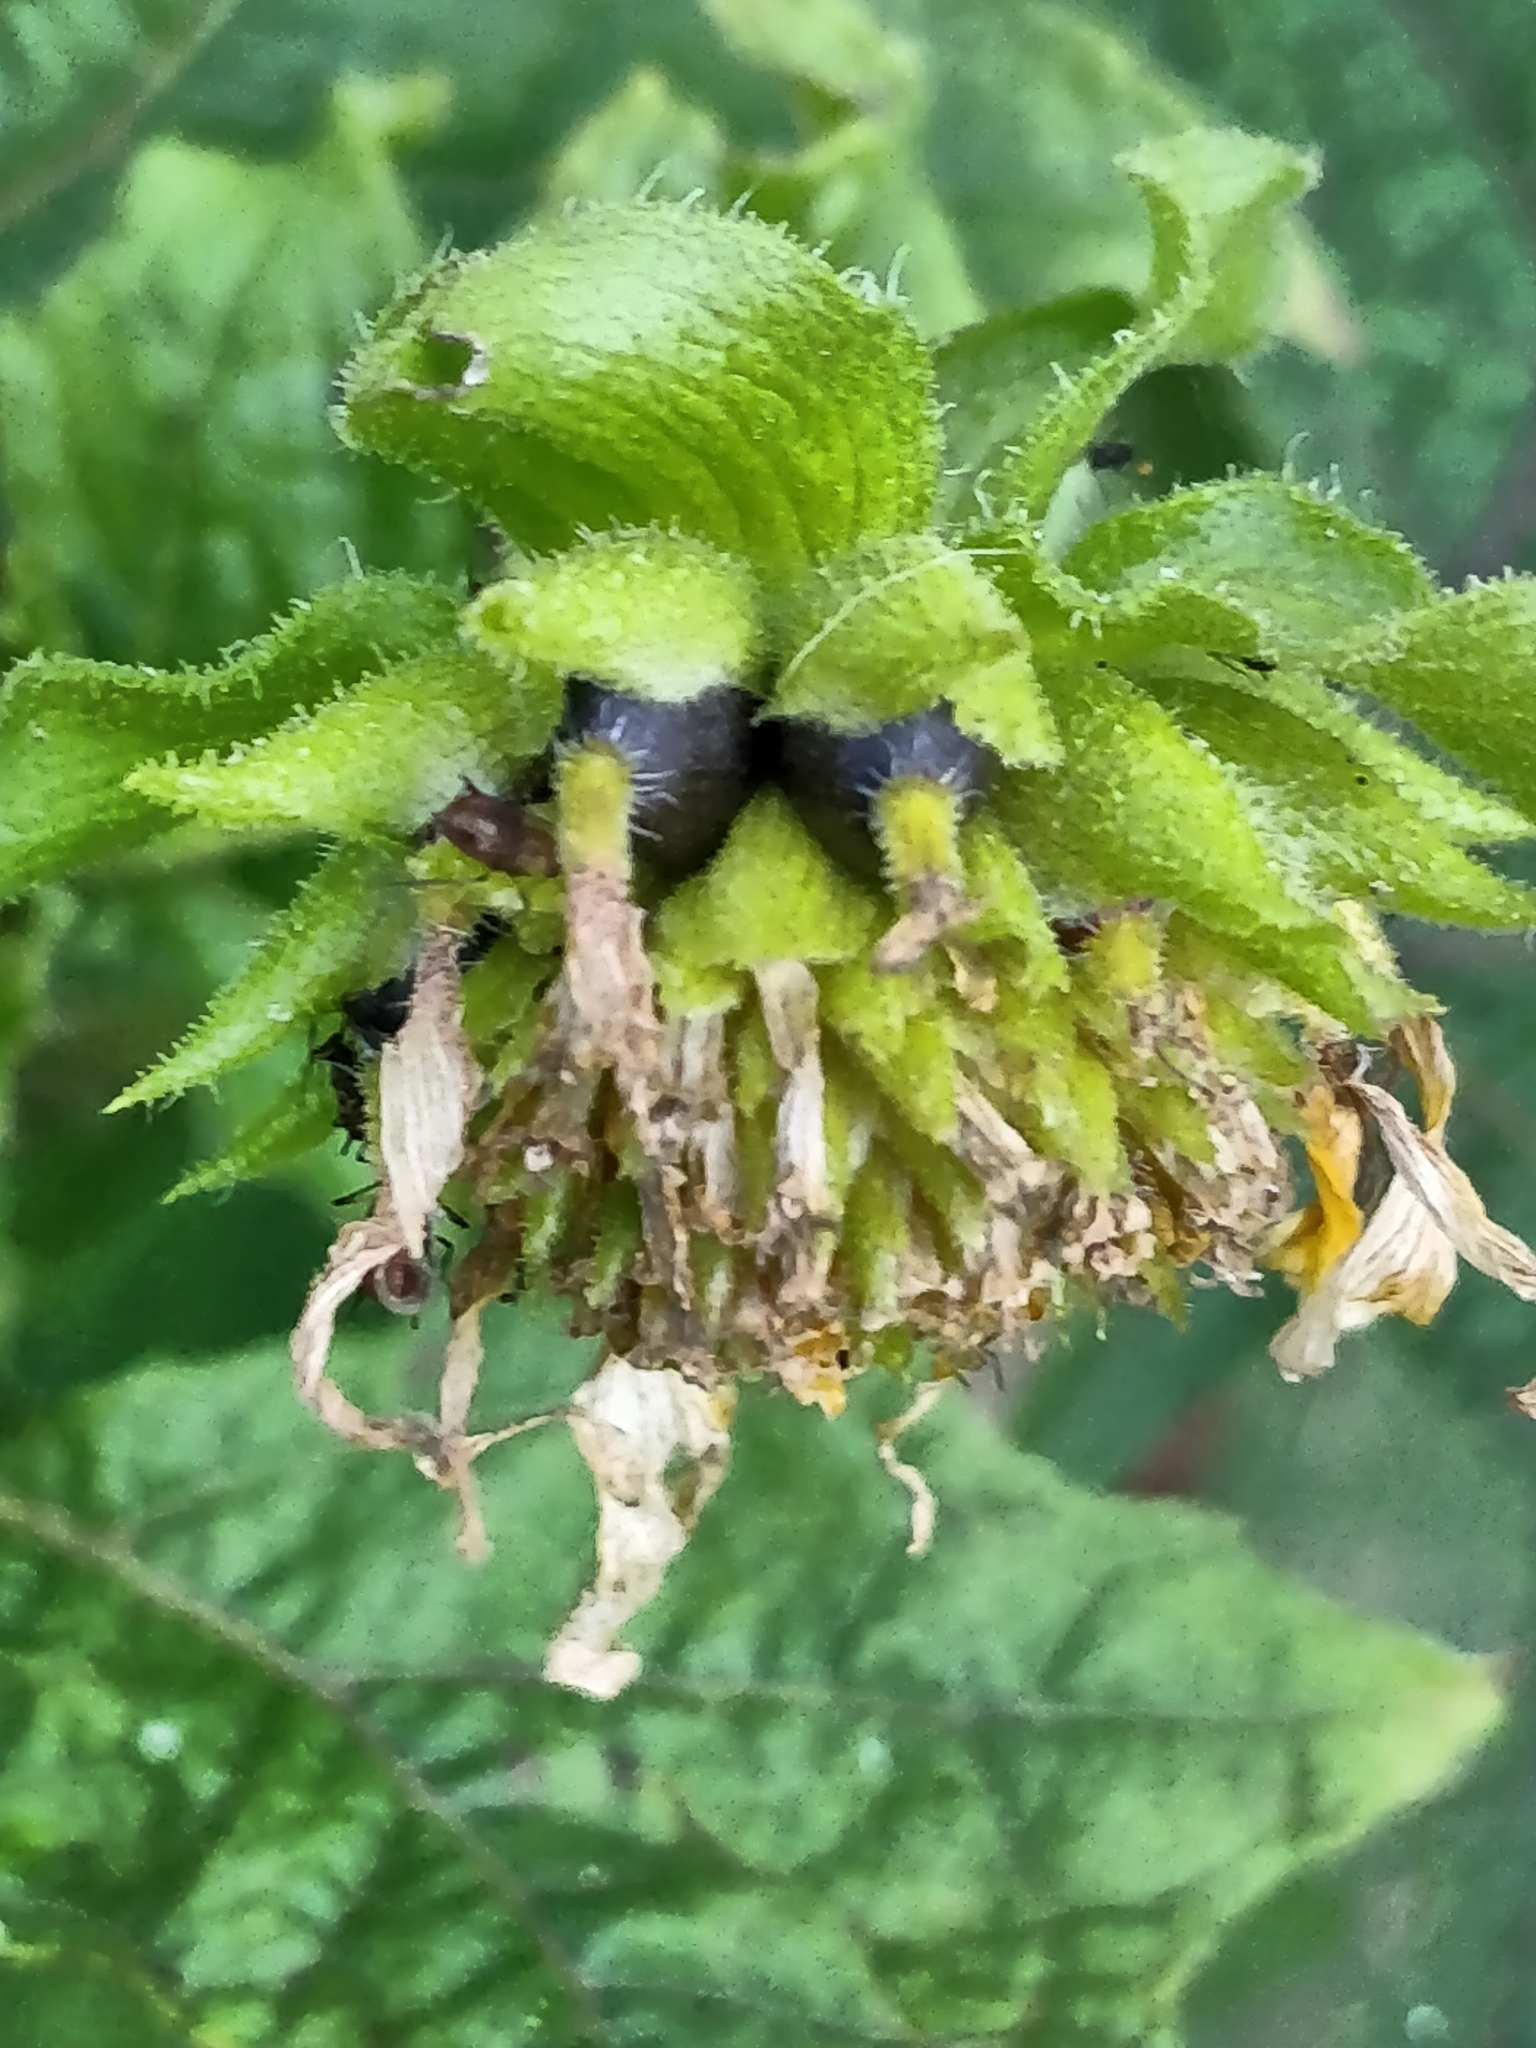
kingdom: Plantae
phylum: Tracheophyta
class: Magnoliopsida
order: Asterales
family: Asteraceae
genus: Smallanthus
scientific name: Smallanthus uvedalia
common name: Bear's-foot
